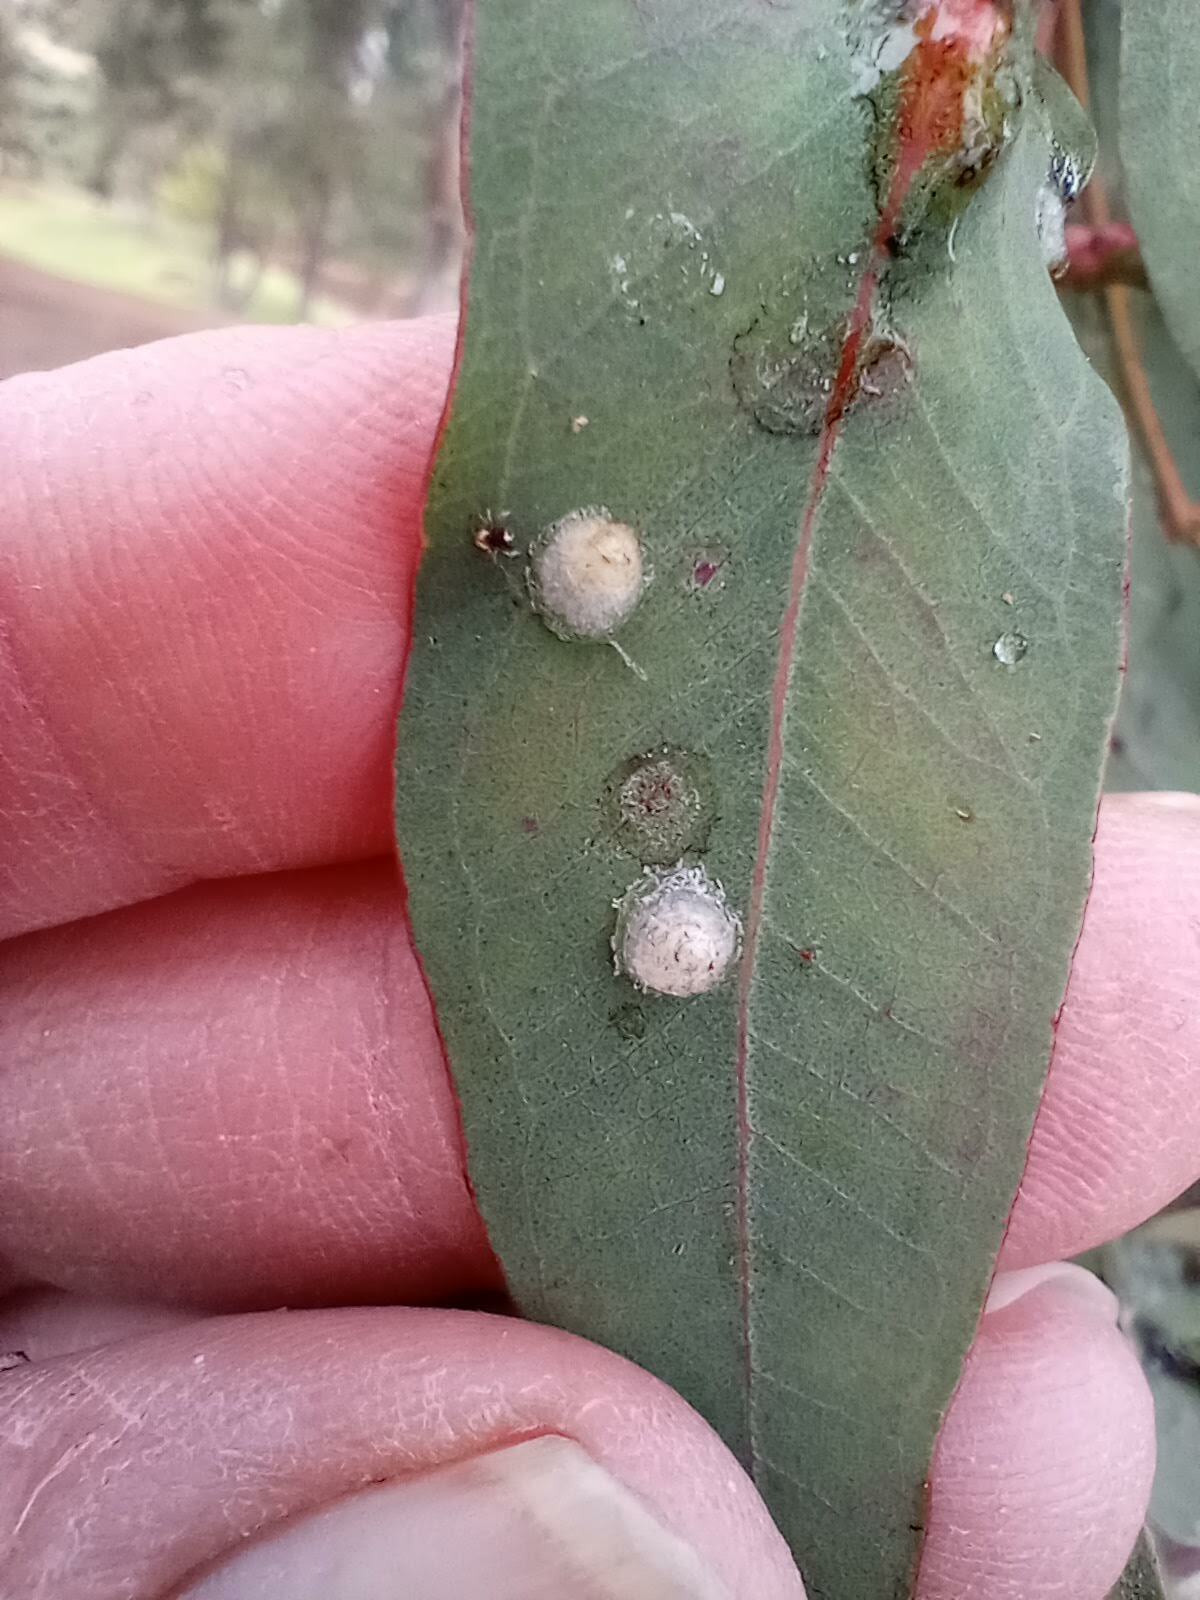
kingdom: Animalia
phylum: Arthropoda
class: Insecta
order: Hemiptera
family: Aphalaridae
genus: Glycaspis
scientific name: Glycaspis brimblecombei
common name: Red gum lerp psyllid
